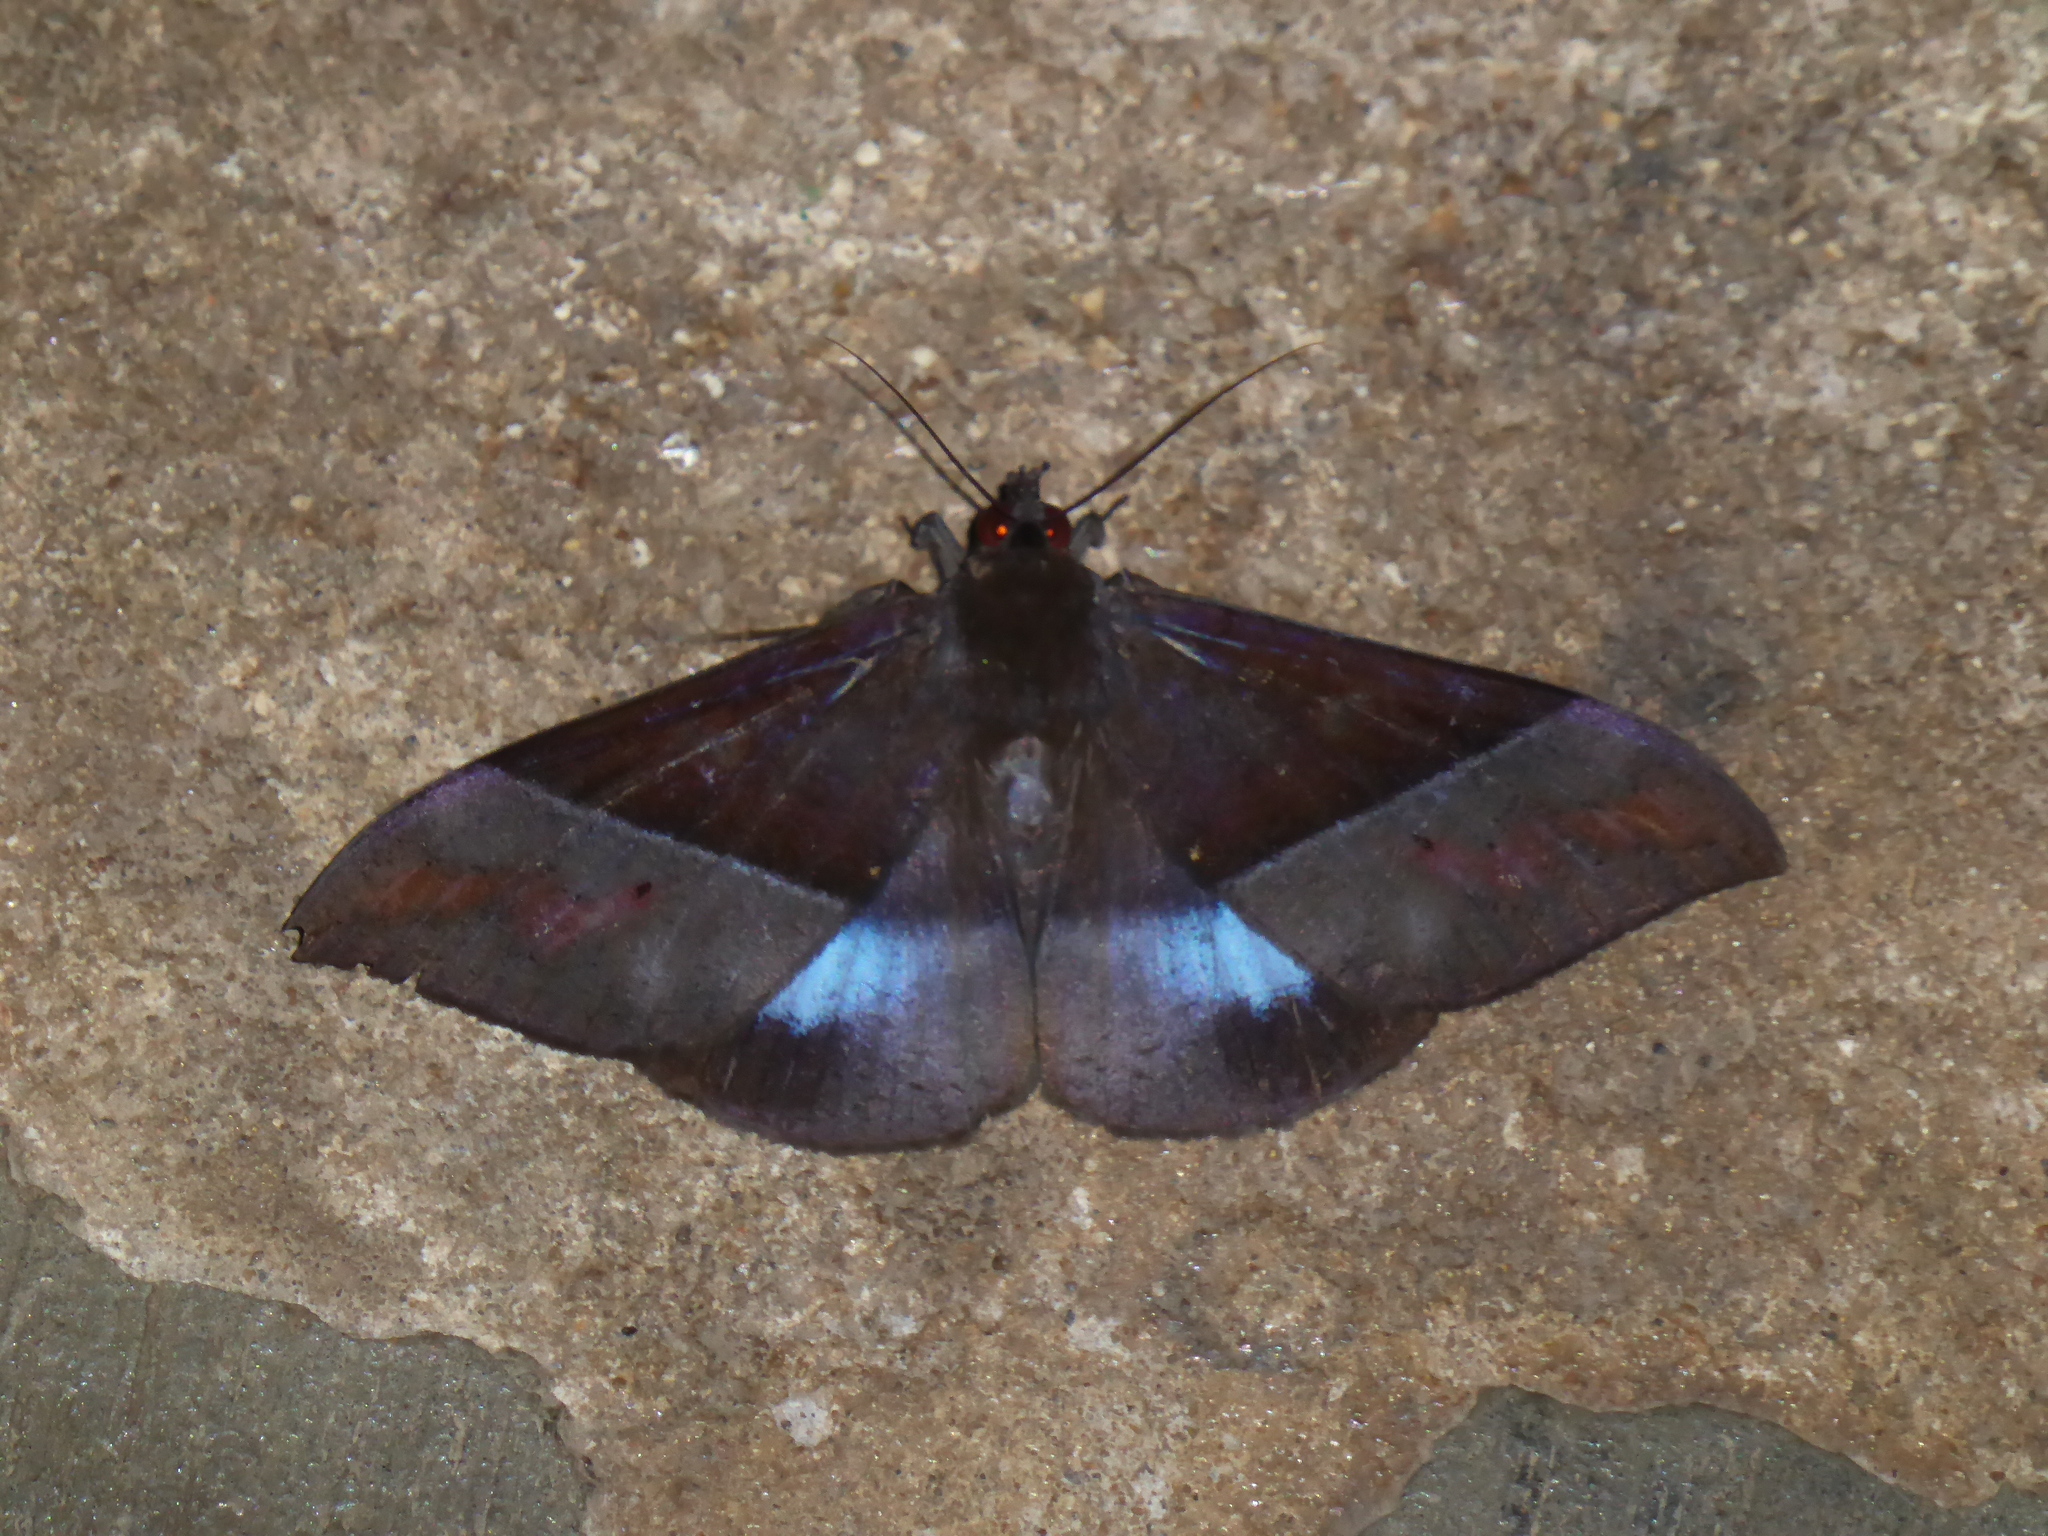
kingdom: Animalia
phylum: Arthropoda
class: Insecta
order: Lepidoptera
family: Erebidae
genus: Ischyja
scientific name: Ischyja hemiphaea
